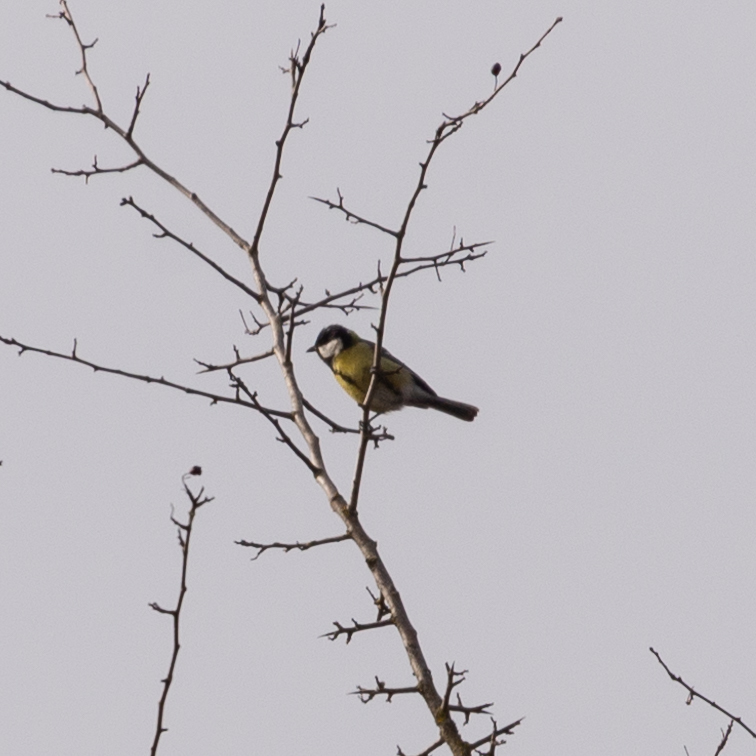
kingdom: Animalia
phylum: Chordata
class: Aves
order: Passeriformes
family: Paridae
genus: Parus
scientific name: Parus major
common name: Great tit
